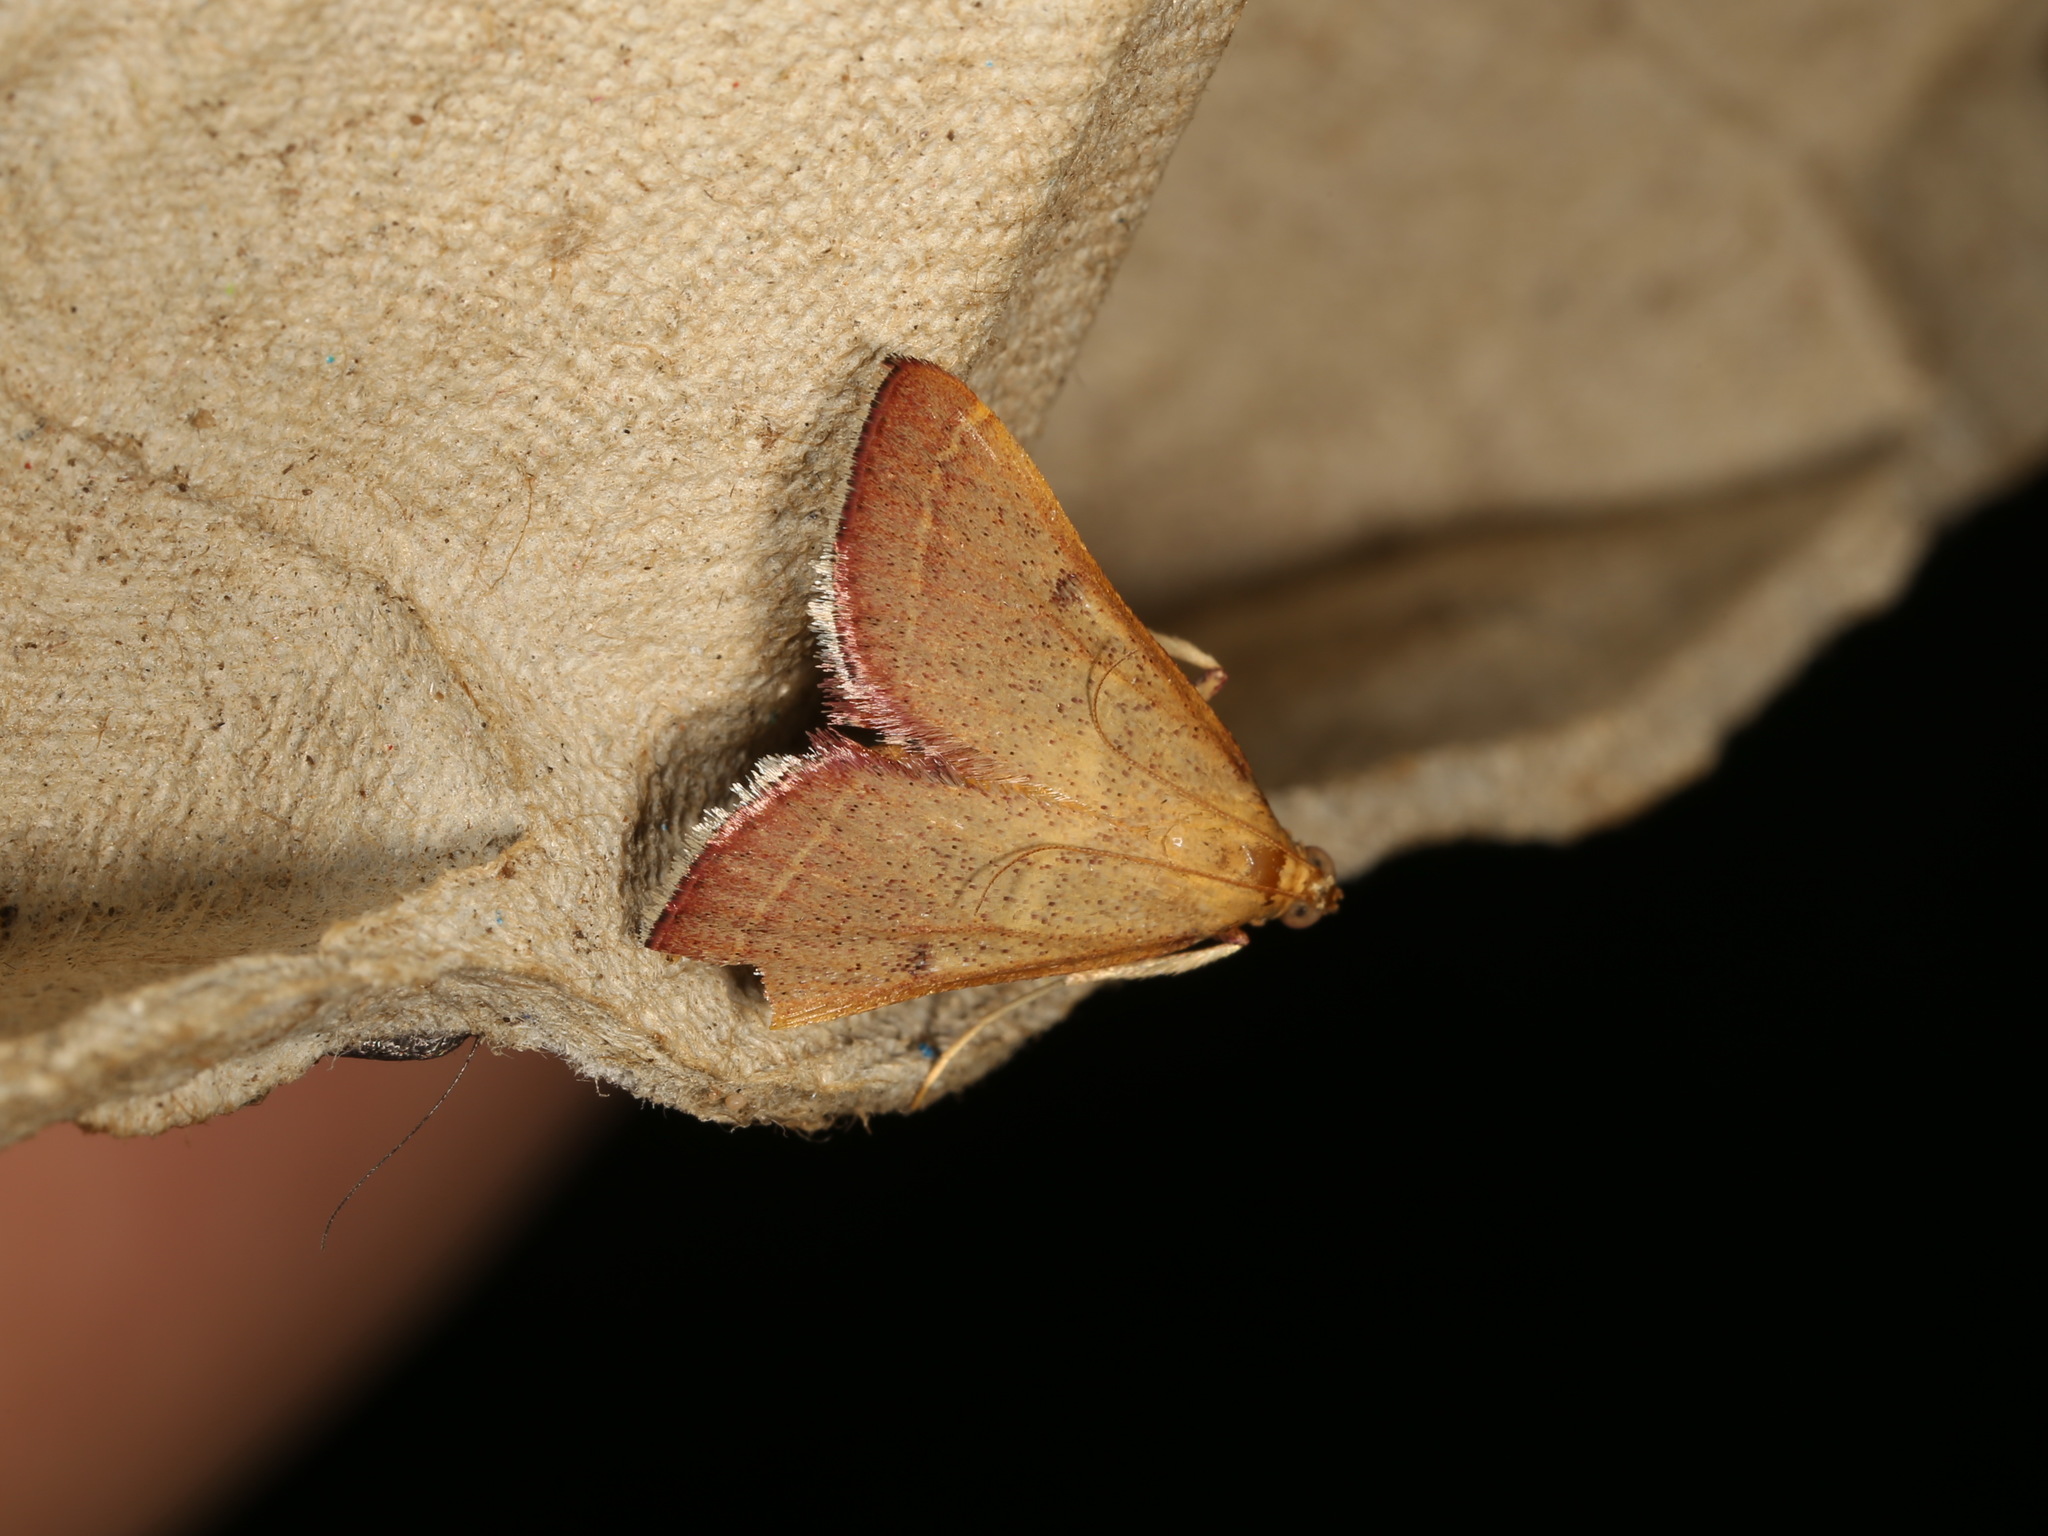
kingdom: Animalia
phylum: Arthropoda
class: Insecta
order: Lepidoptera
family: Pyralidae
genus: Endotricha
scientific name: Endotricha pyrosalis
